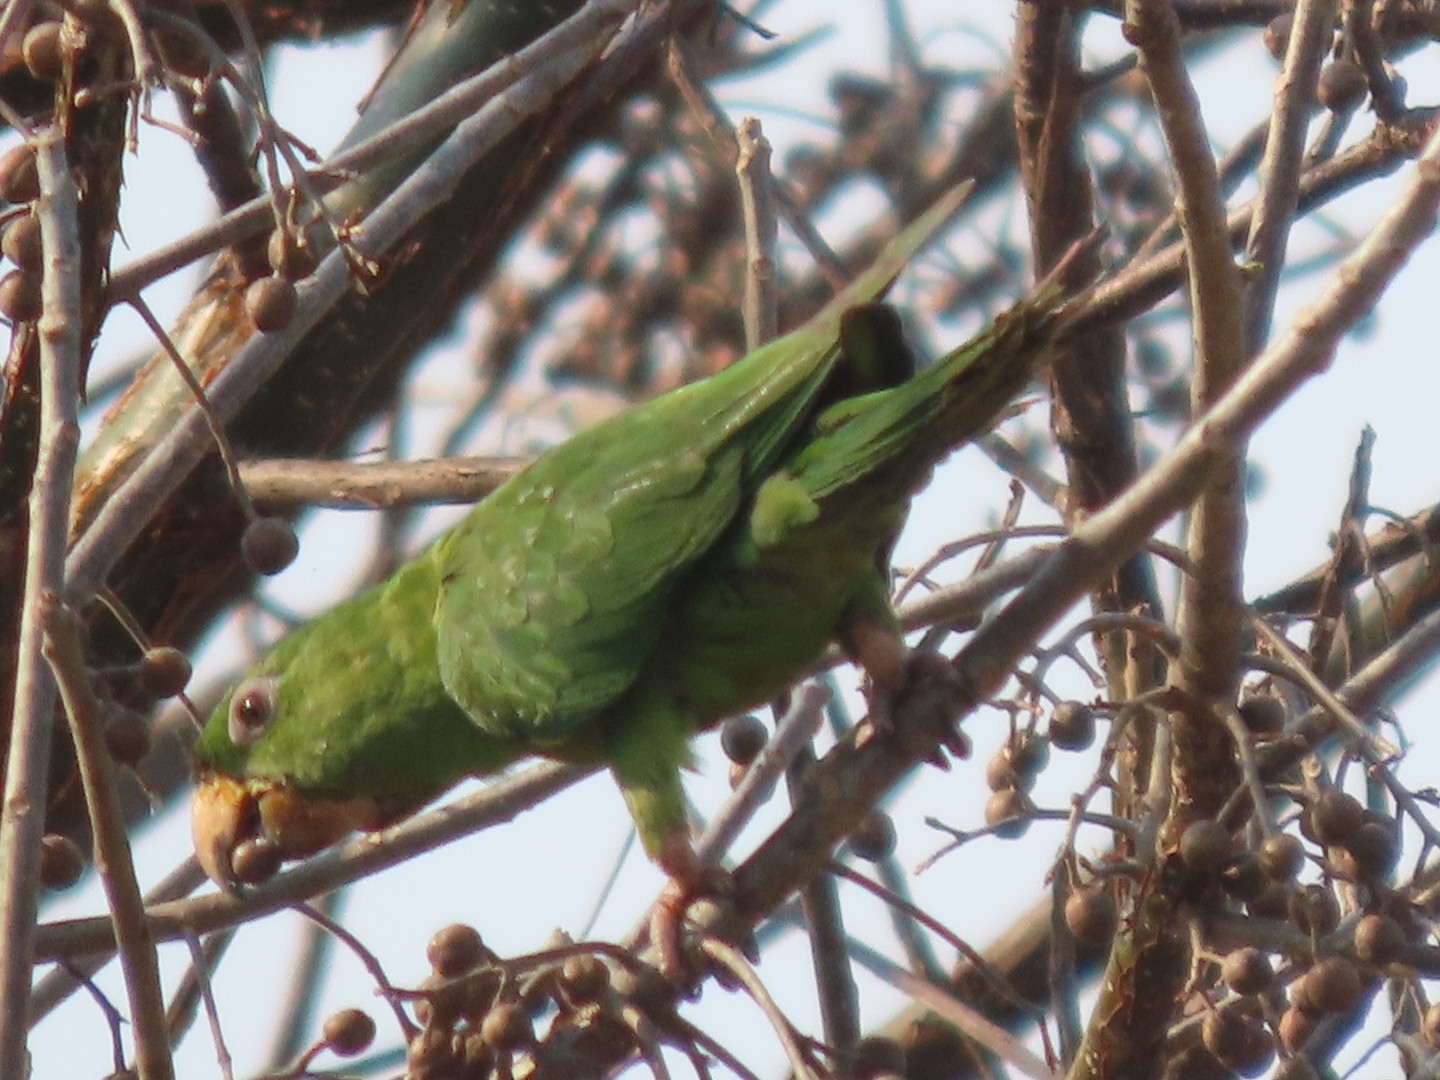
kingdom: Animalia
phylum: Chordata
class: Aves
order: Psittaciformes
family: Psittacidae
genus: Aratinga
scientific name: Aratinga holochlora
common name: Green parakeet
